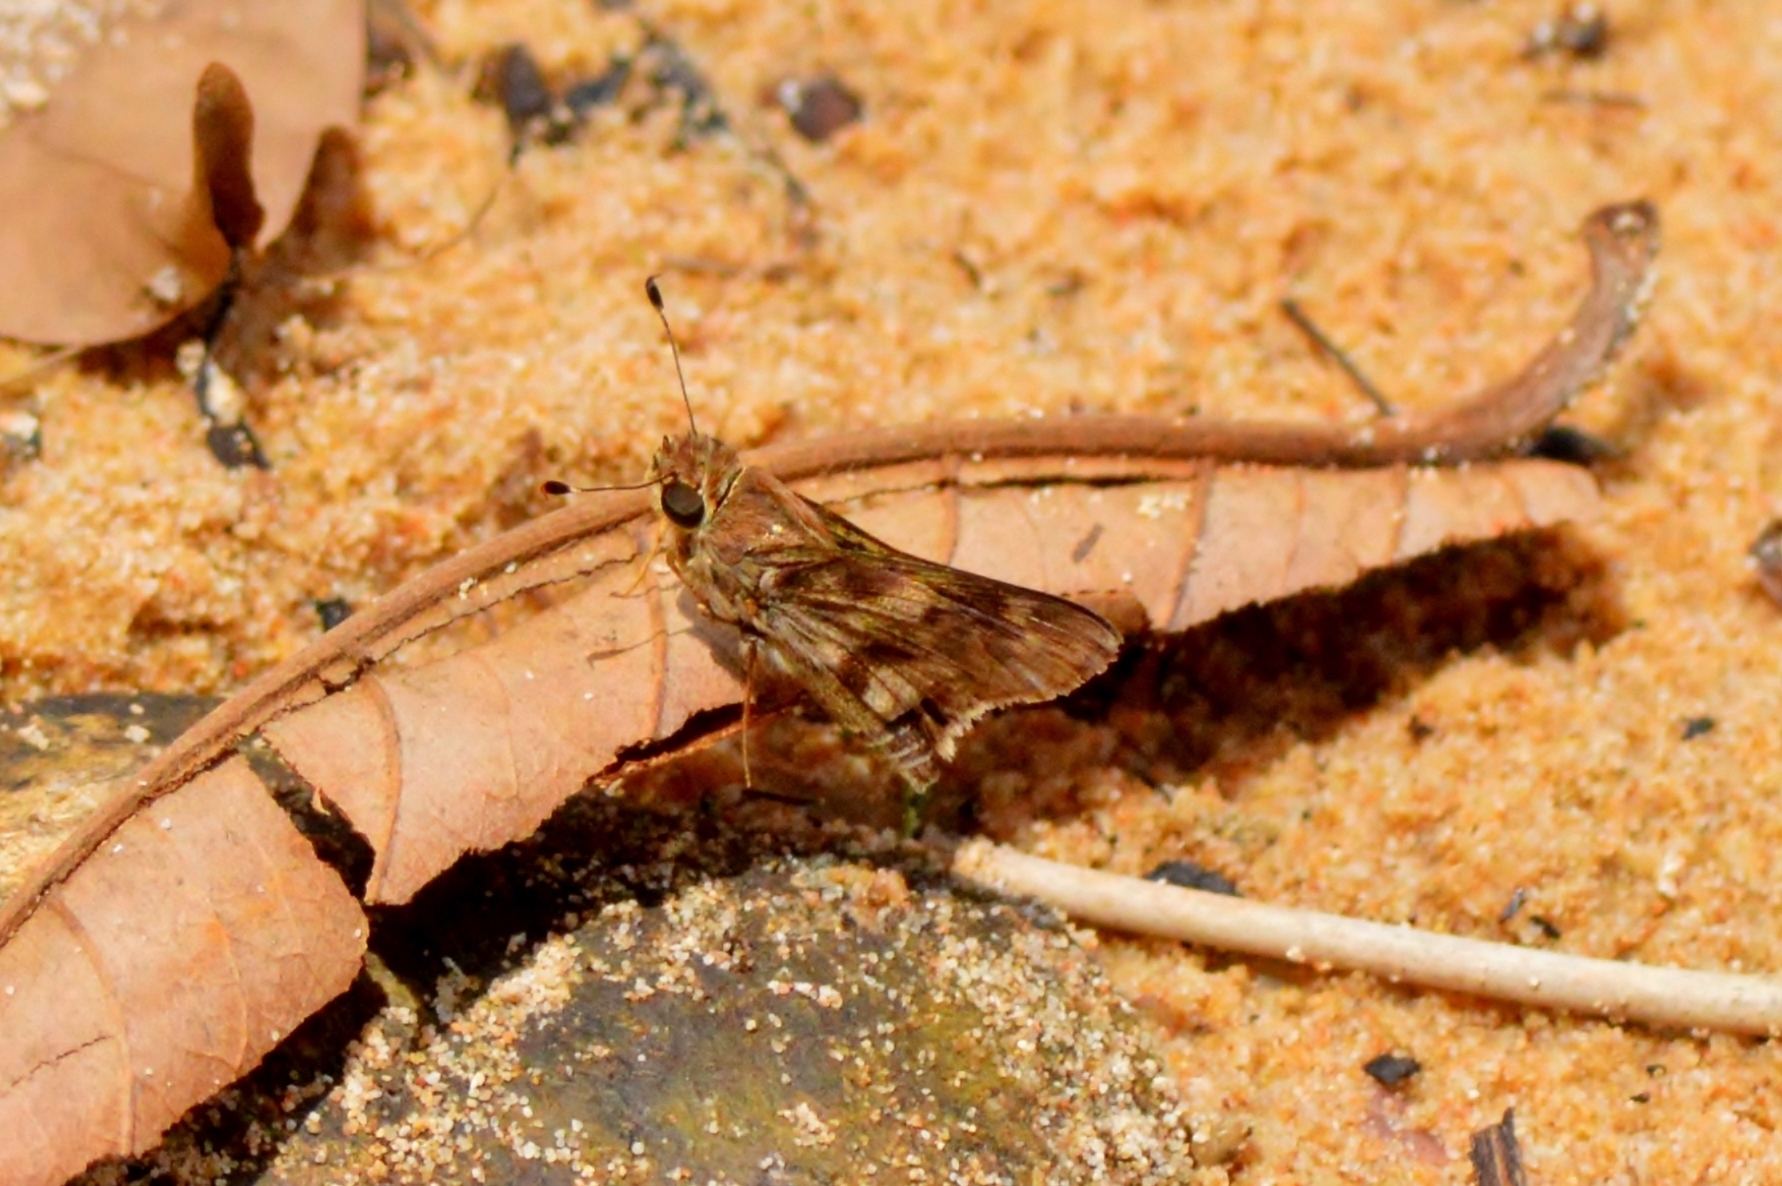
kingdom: Animalia
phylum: Arthropoda
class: Insecta
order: Lepidoptera
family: Hesperiidae
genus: Pompeius
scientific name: Pompeius pompeius
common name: Pompeius skipper
